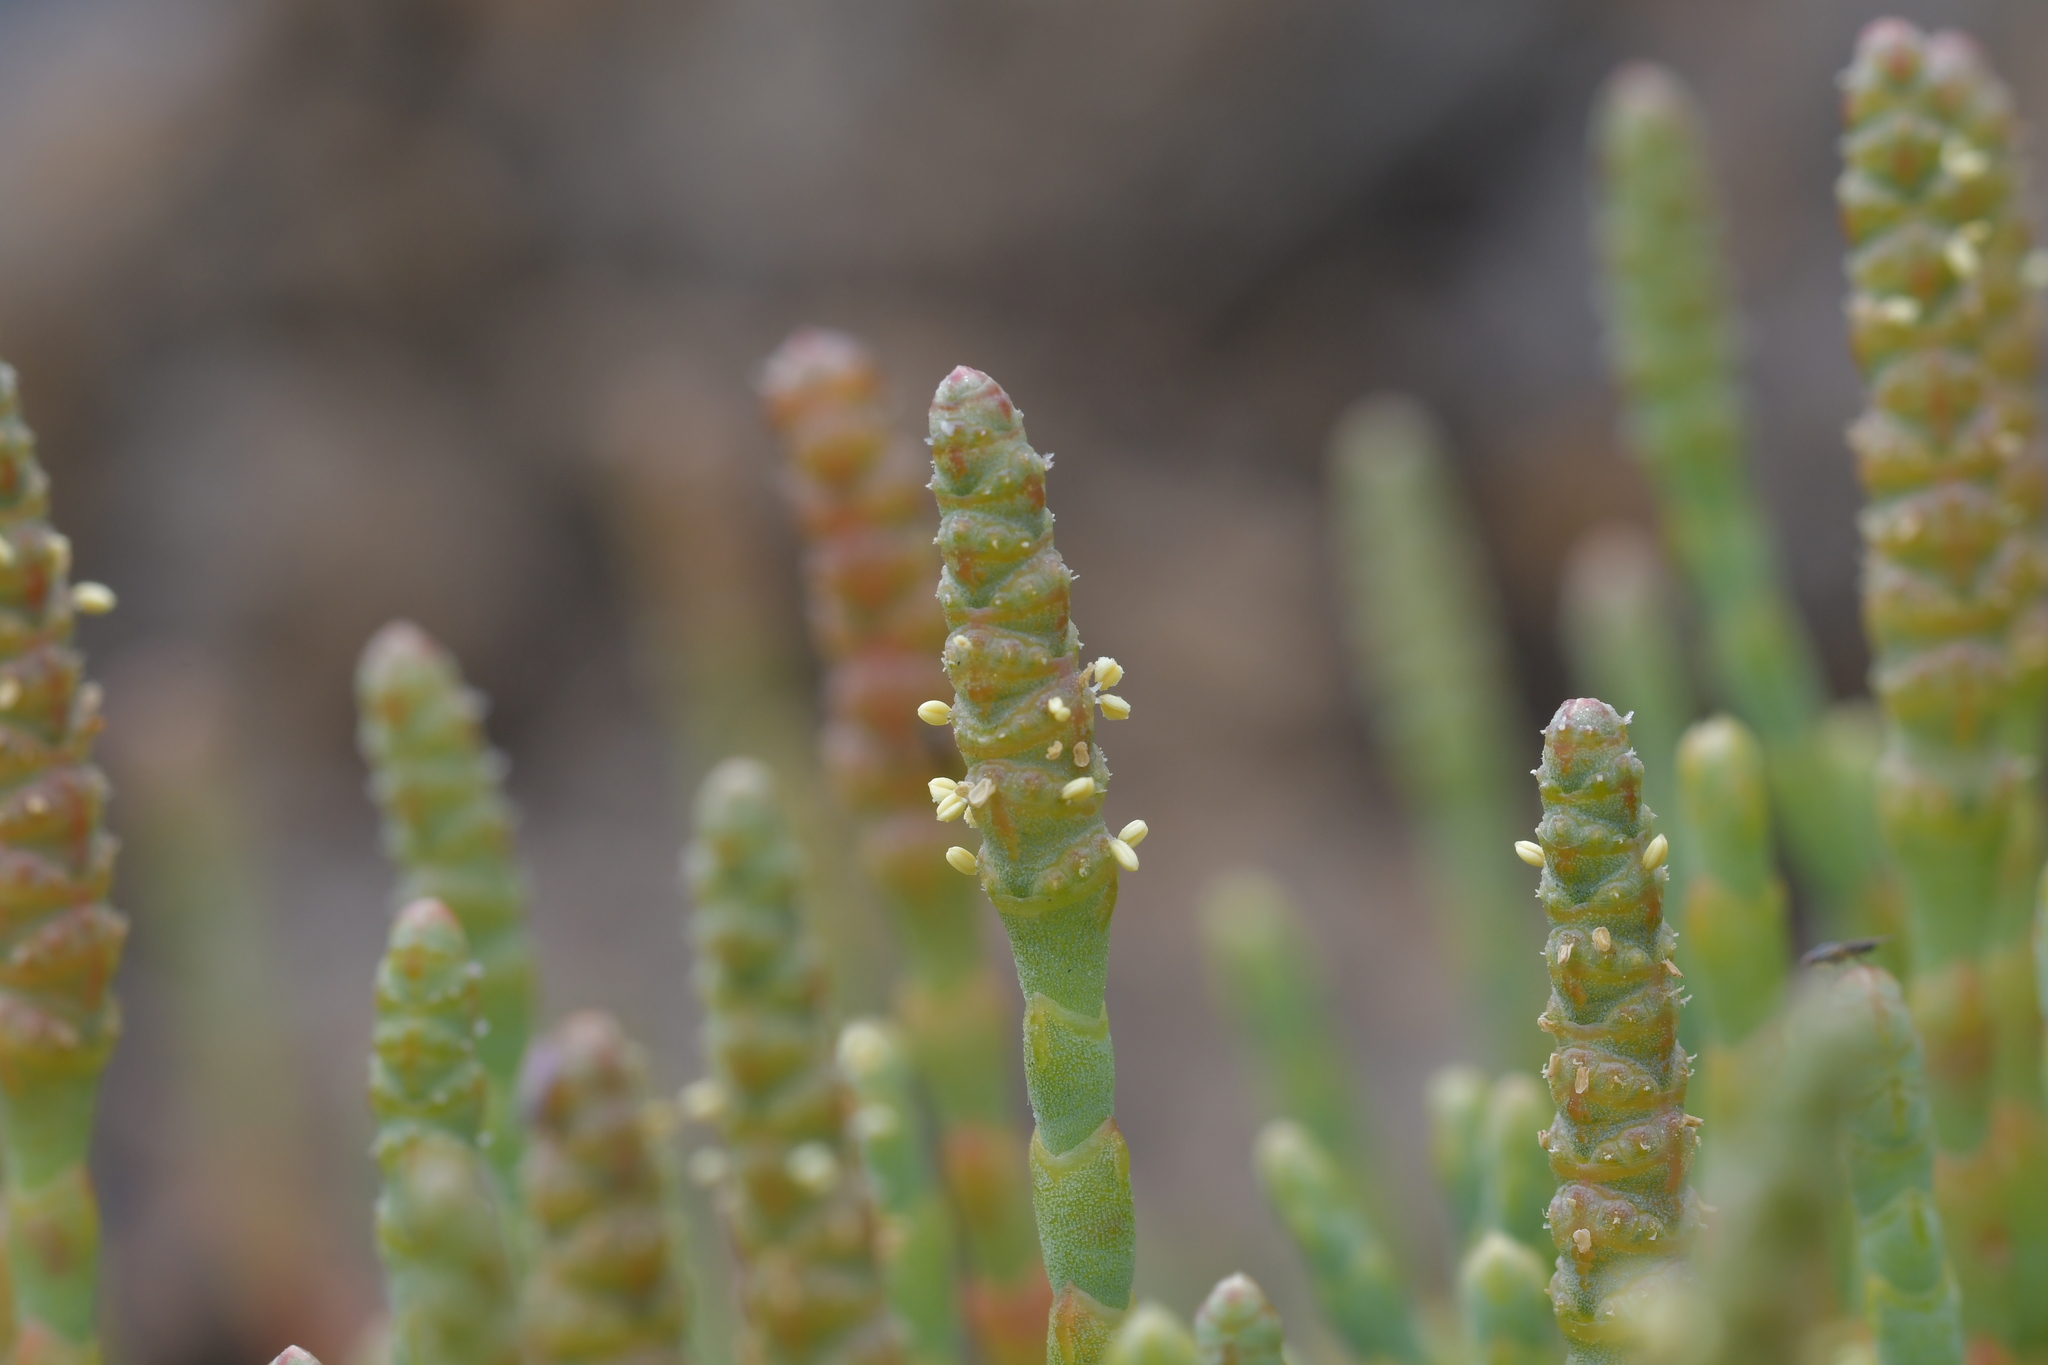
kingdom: Plantae
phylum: Tracheophyta
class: Magnoliopsida
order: Caryophyllales
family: Amaranthaceae
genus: Salicornia
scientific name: Salicornia quinqueflora
